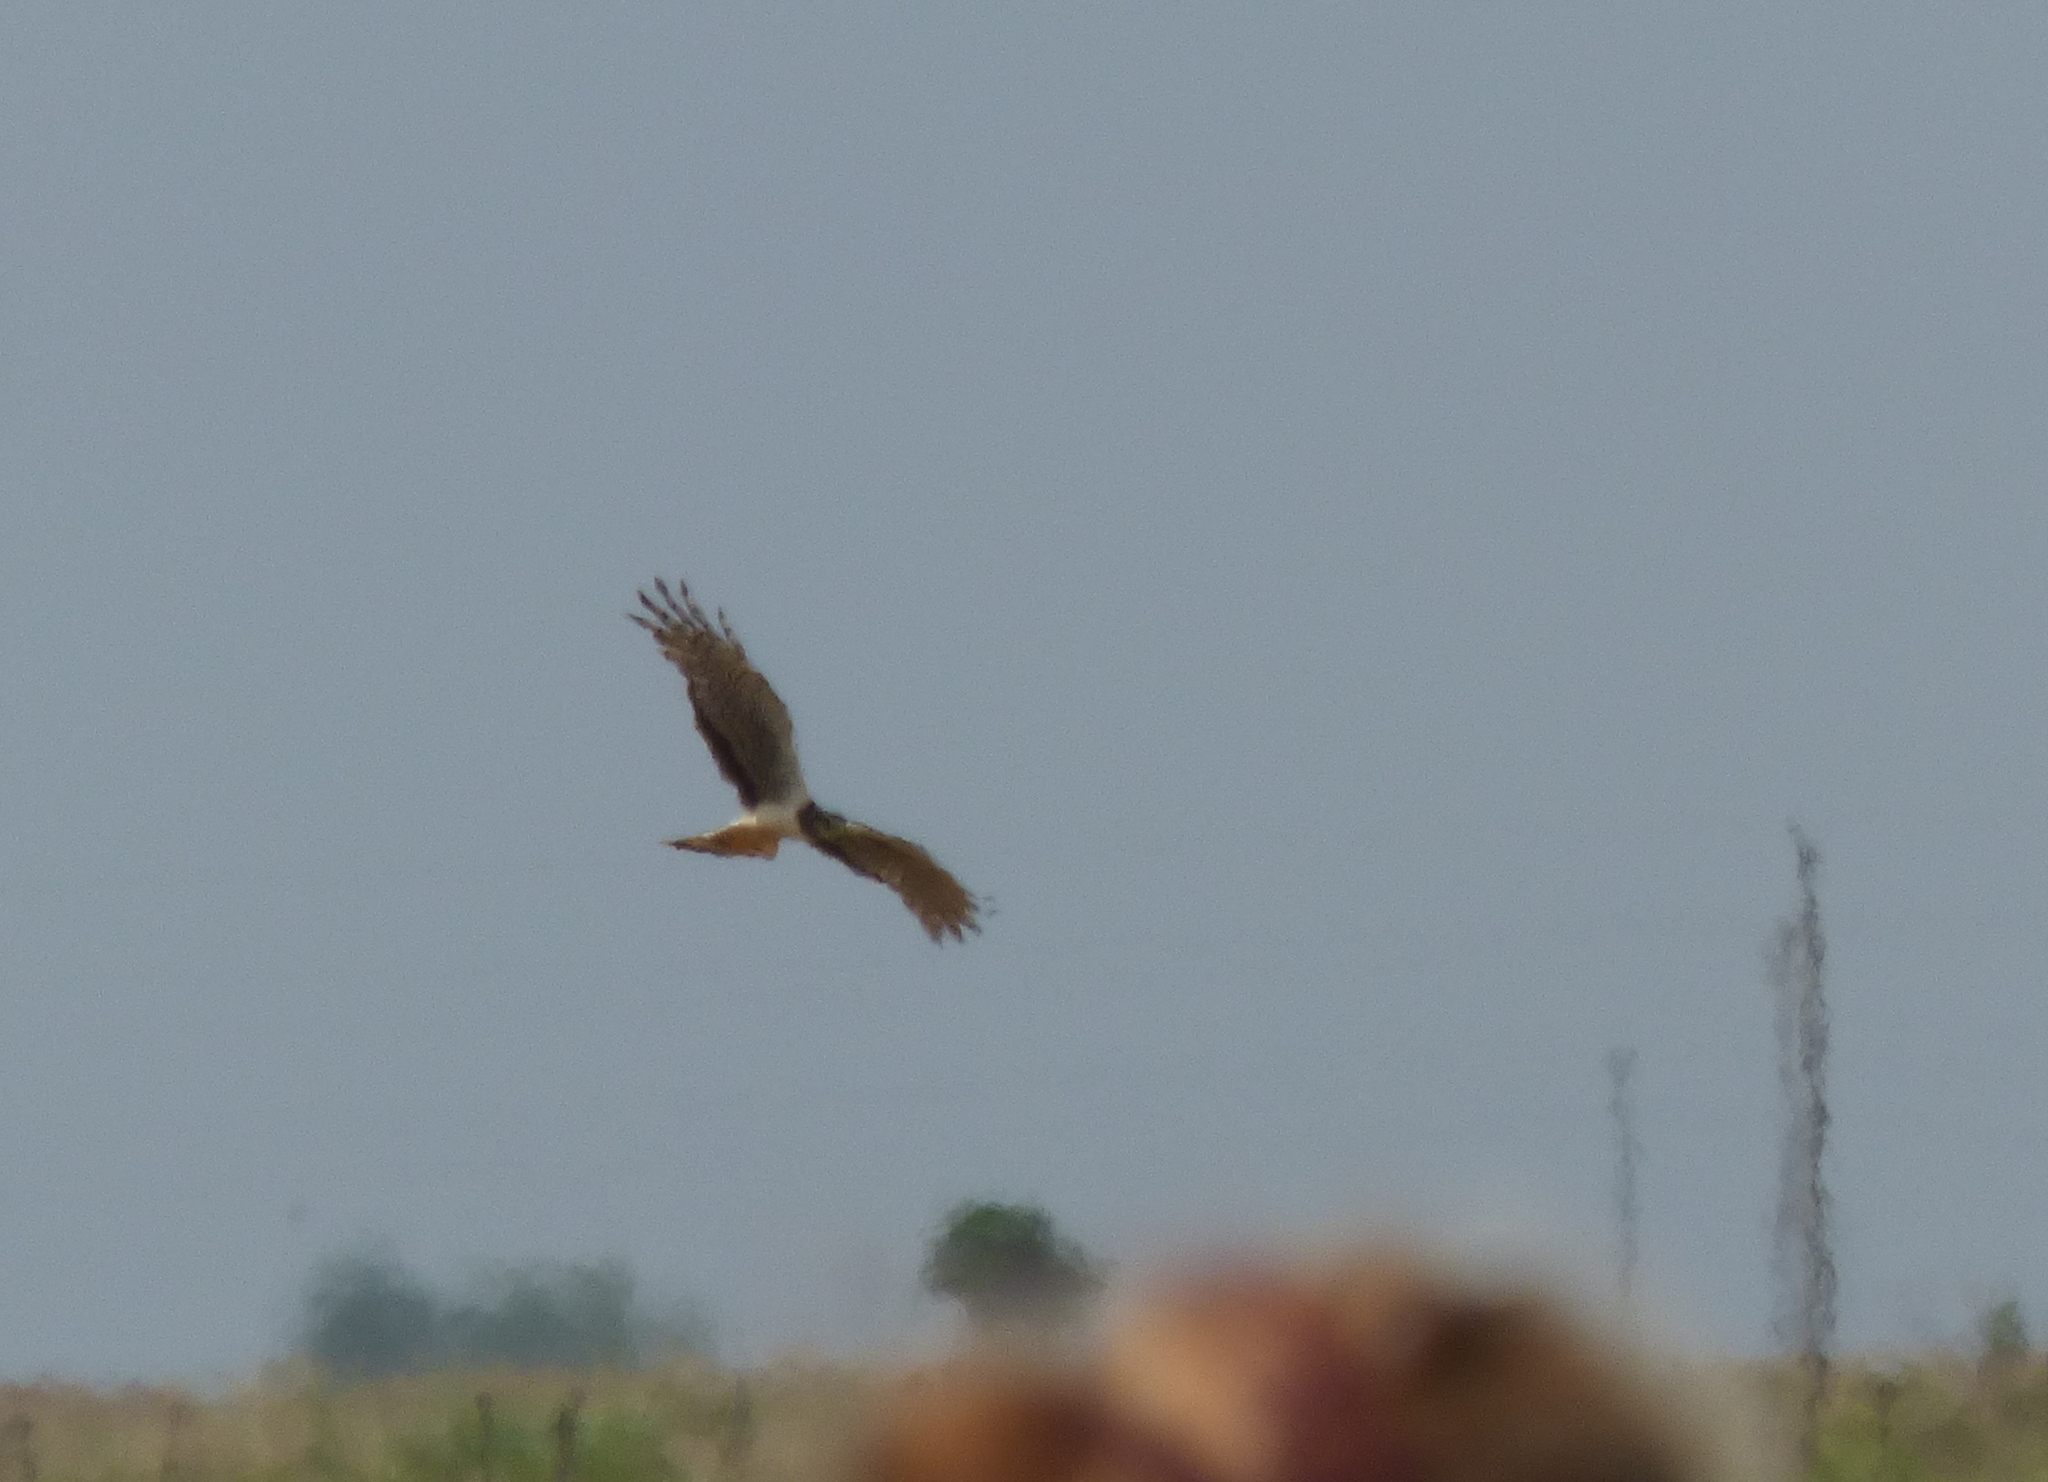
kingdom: Animalia
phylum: Chordata
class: Aves
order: Accipitriformes
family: Accipitridae
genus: Circus
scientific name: Circus buffoni
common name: Long-winged harrier
